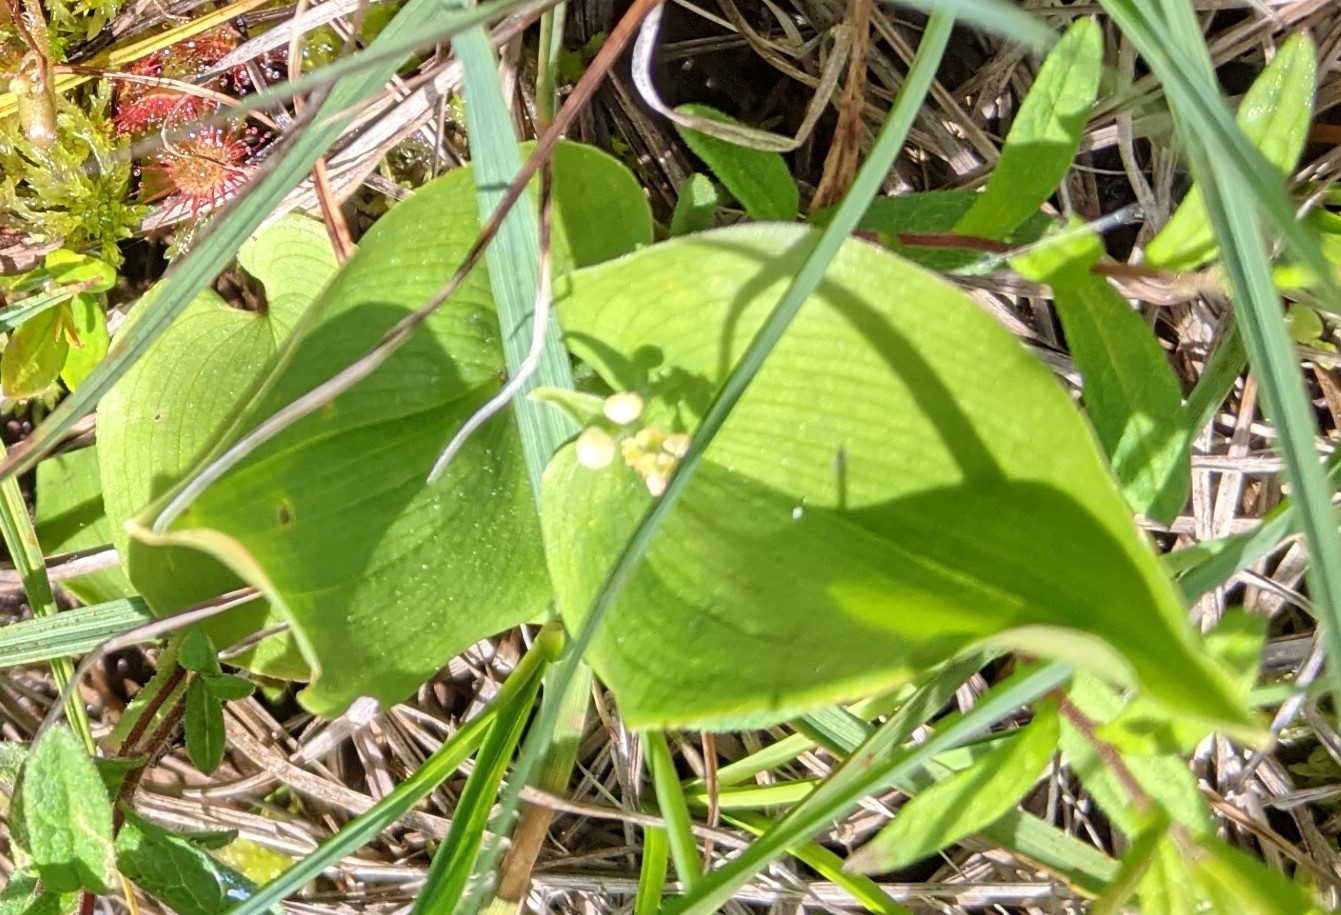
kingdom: Plantae
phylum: Tracheophyta
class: Liliopsida
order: Asparagales
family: Asparagaceae
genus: Maianthemum
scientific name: Maianthemum canadense
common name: False lily-of-the-valley
